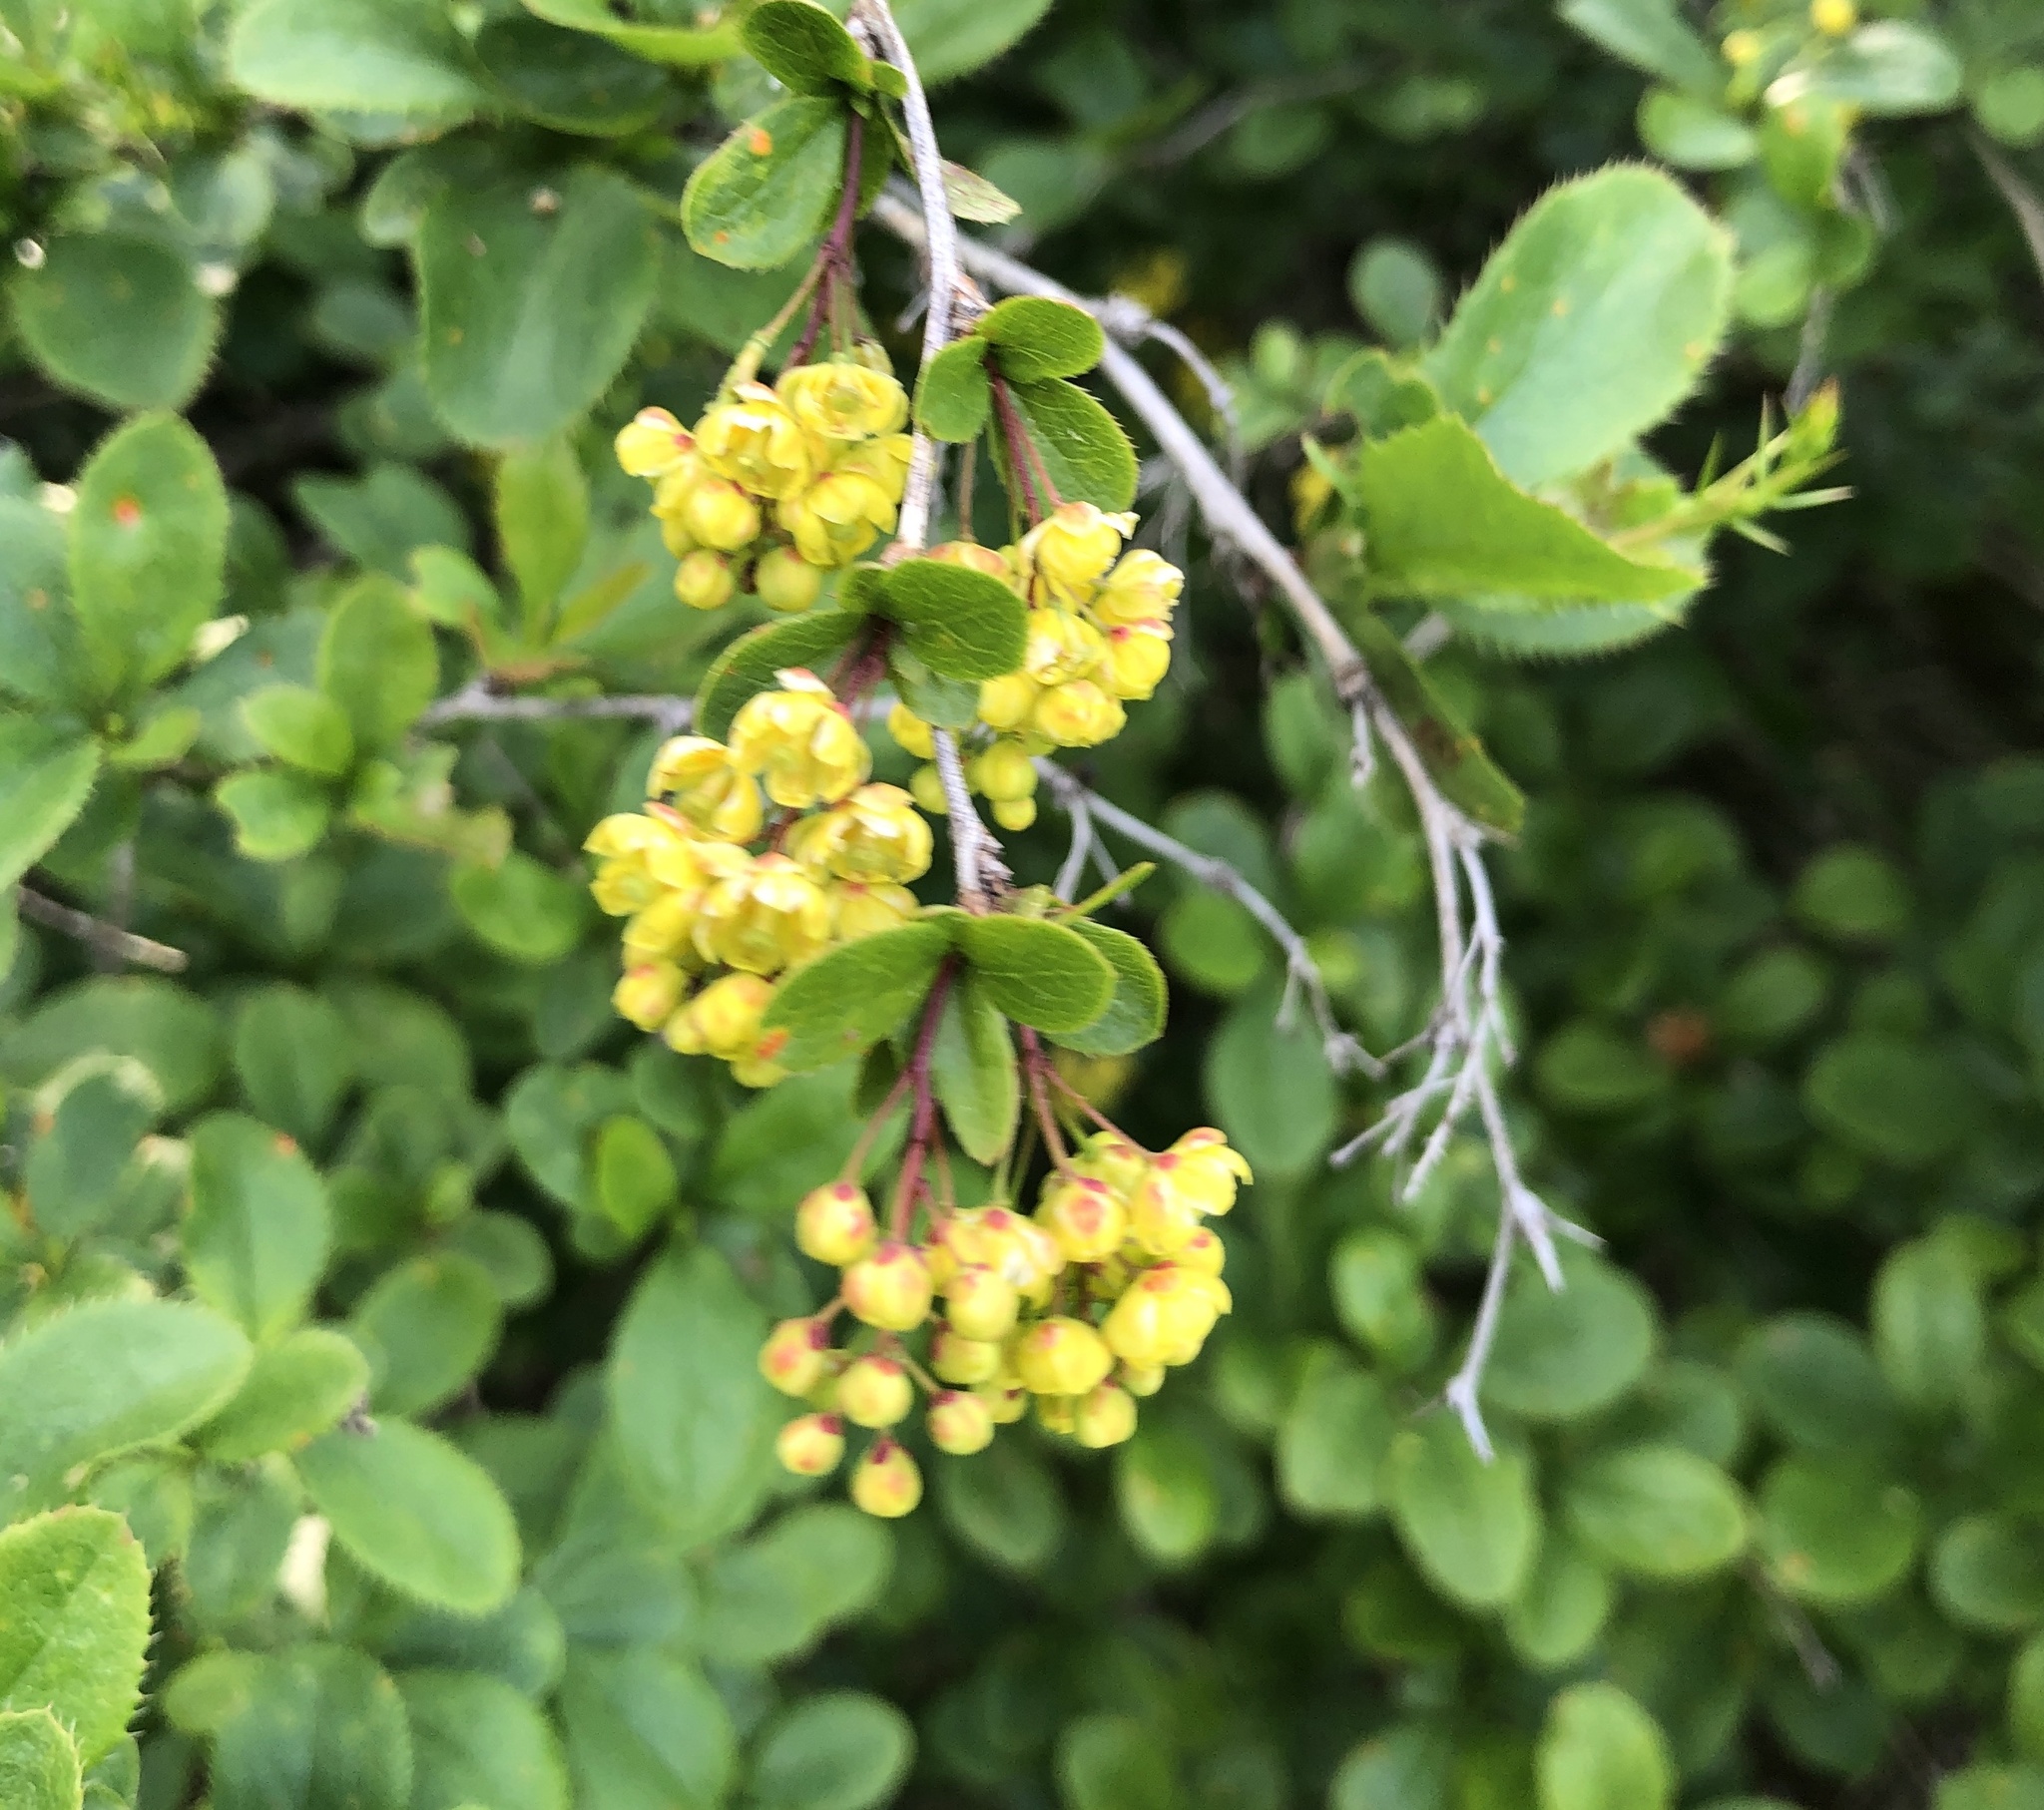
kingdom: Plantae
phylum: Tracheophyta
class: Magnoliopsida
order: Ranunculales
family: Berberidaceae
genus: Berberis
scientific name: Berberis vulgaris
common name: Barberry
